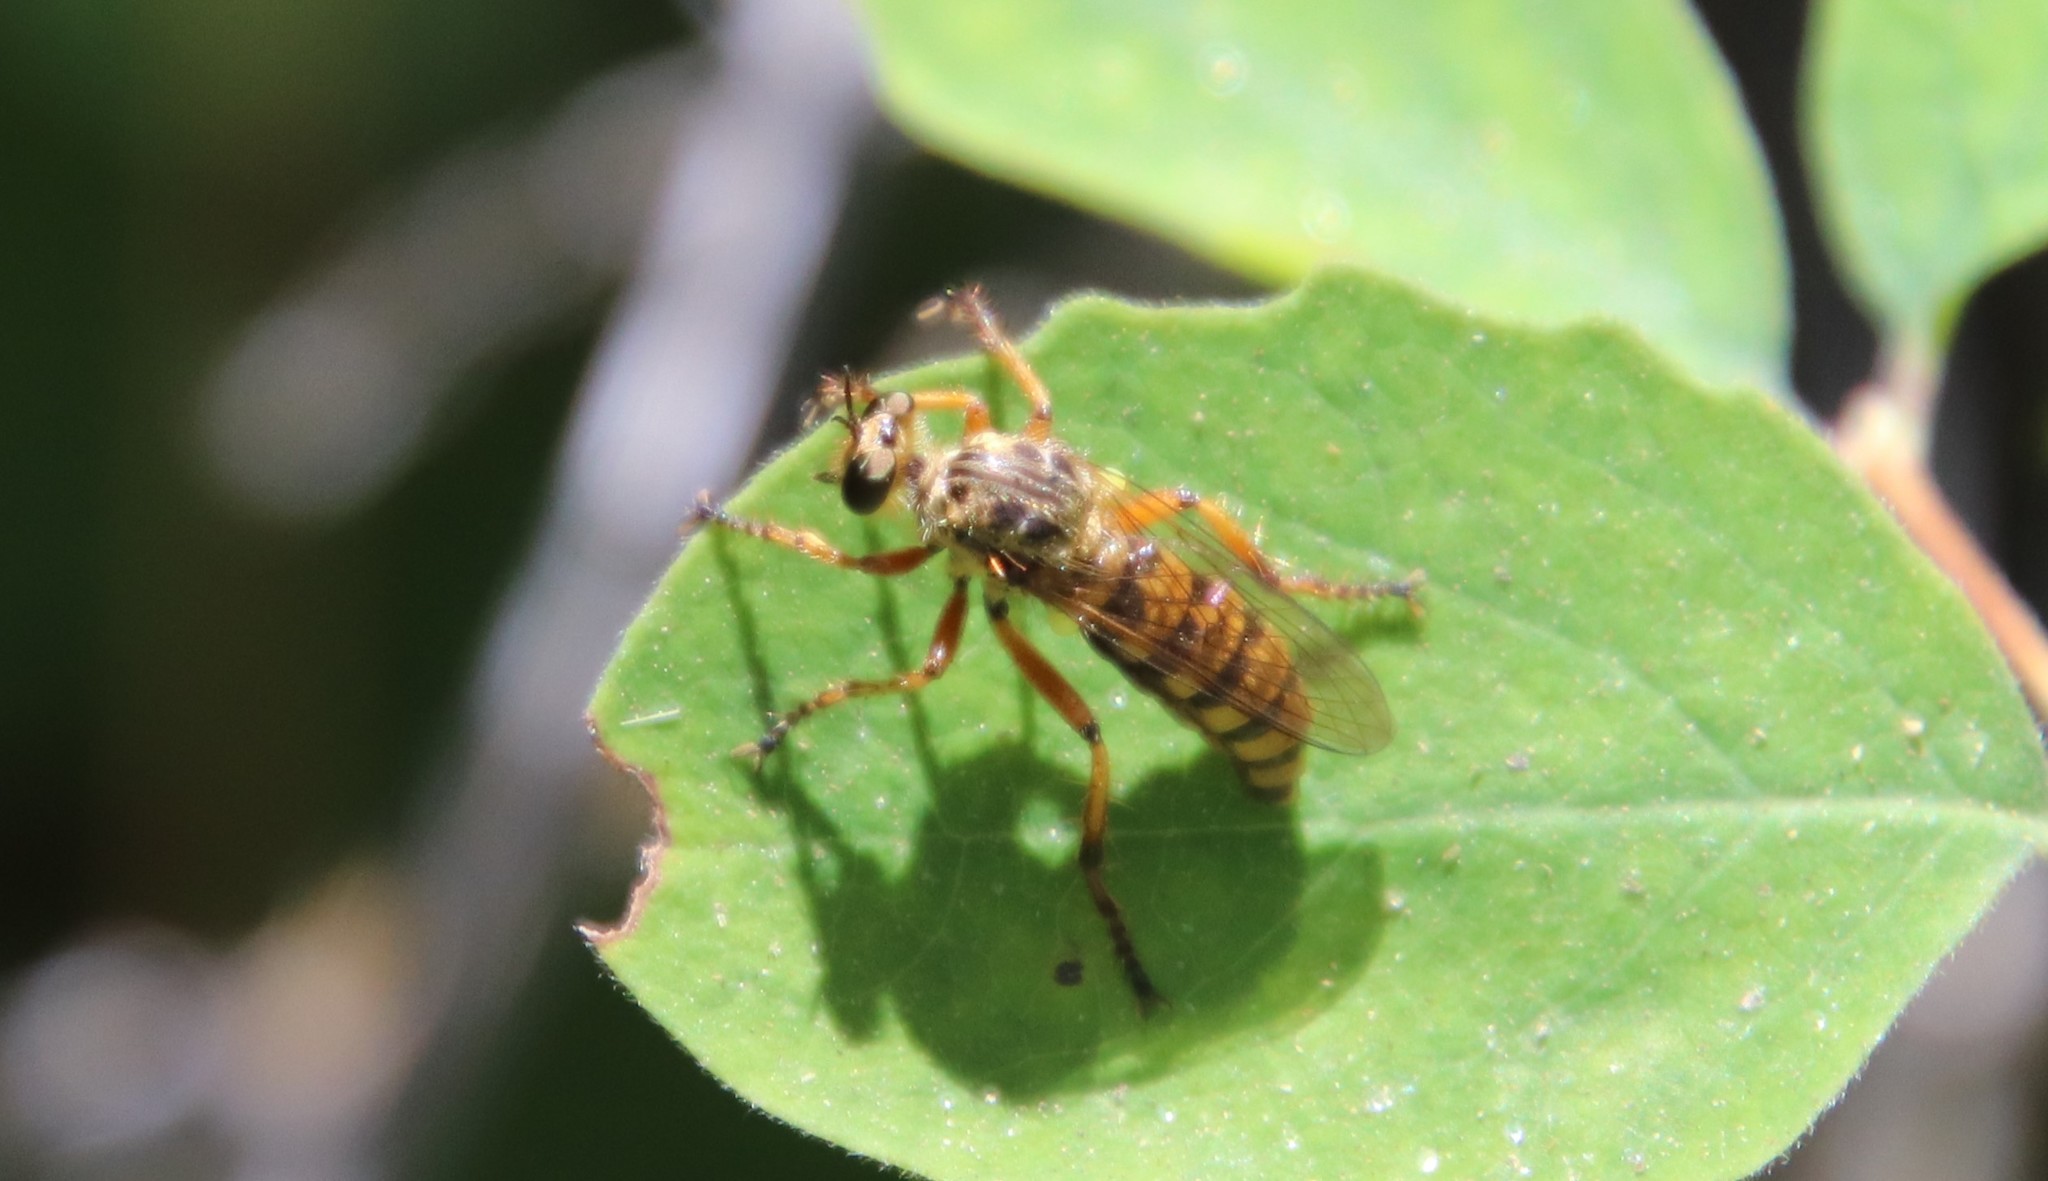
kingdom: Animalia
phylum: Arthropoda
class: Insecta
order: Diptera
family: Asilidae
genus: Callinicus
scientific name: Callinicus pictitarsis
